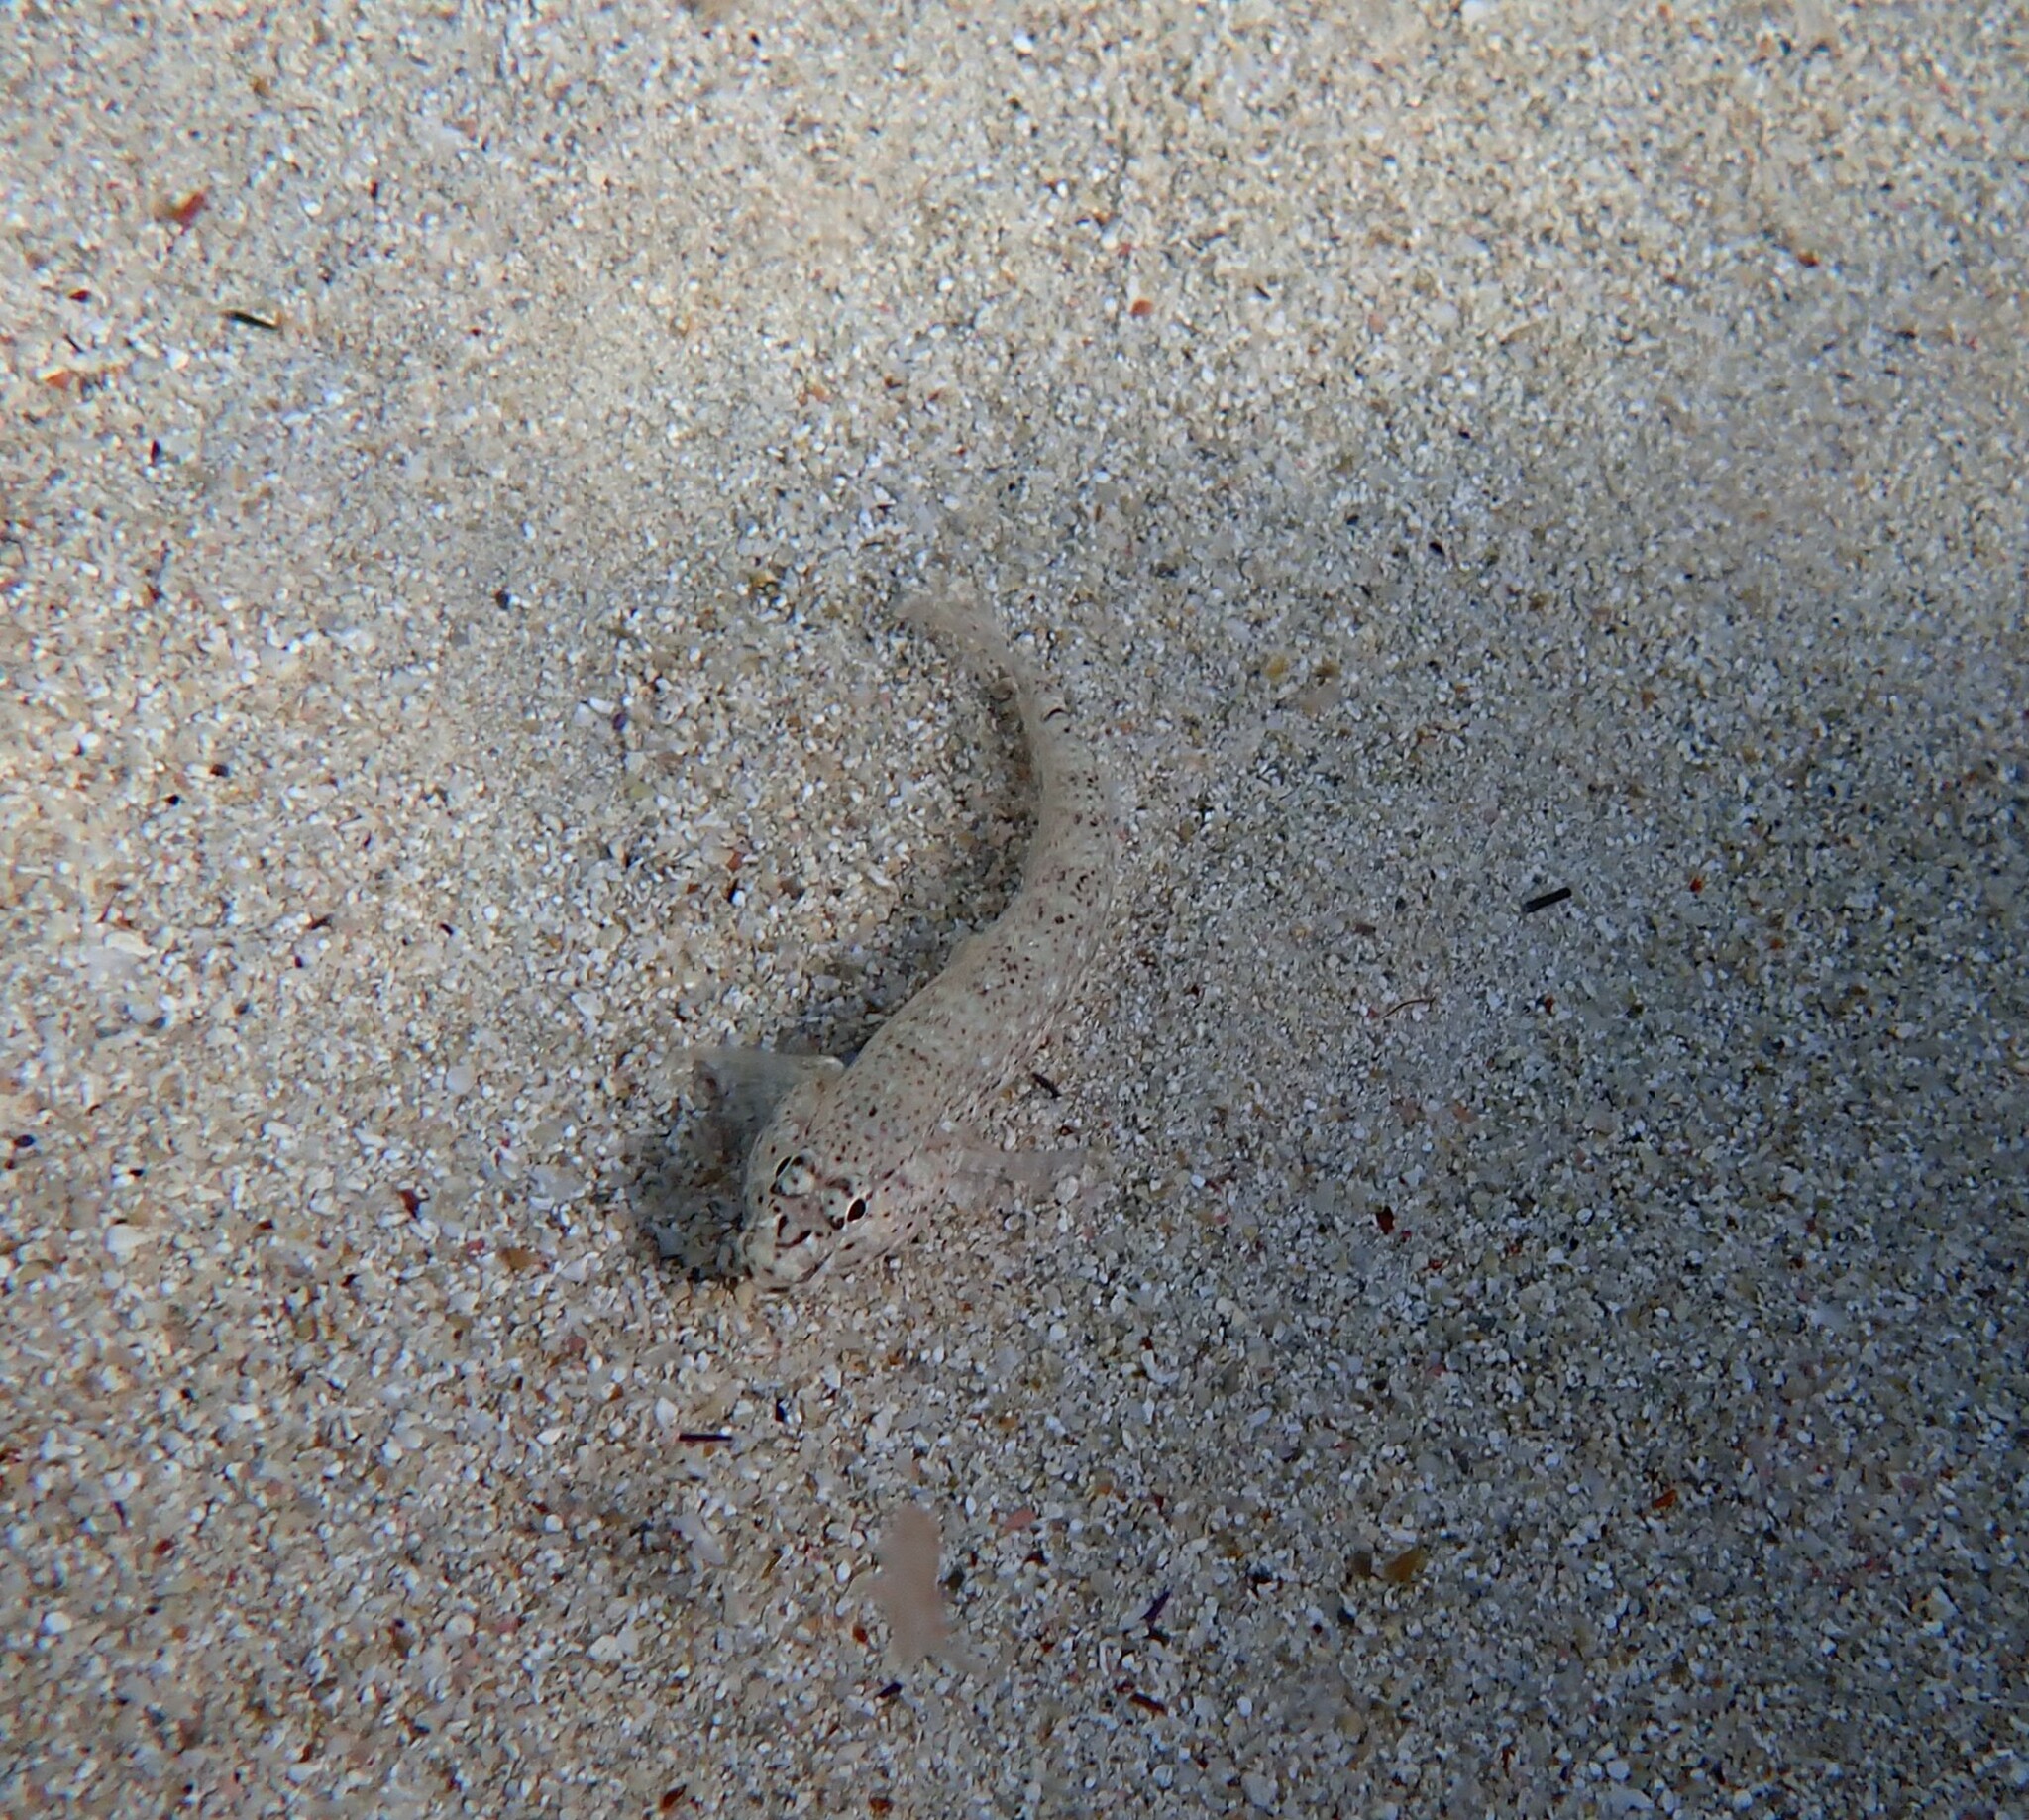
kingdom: Animalia
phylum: Chordata
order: Perciformes
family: Gobiidae
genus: Gobius
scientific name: Gobius incognitus
